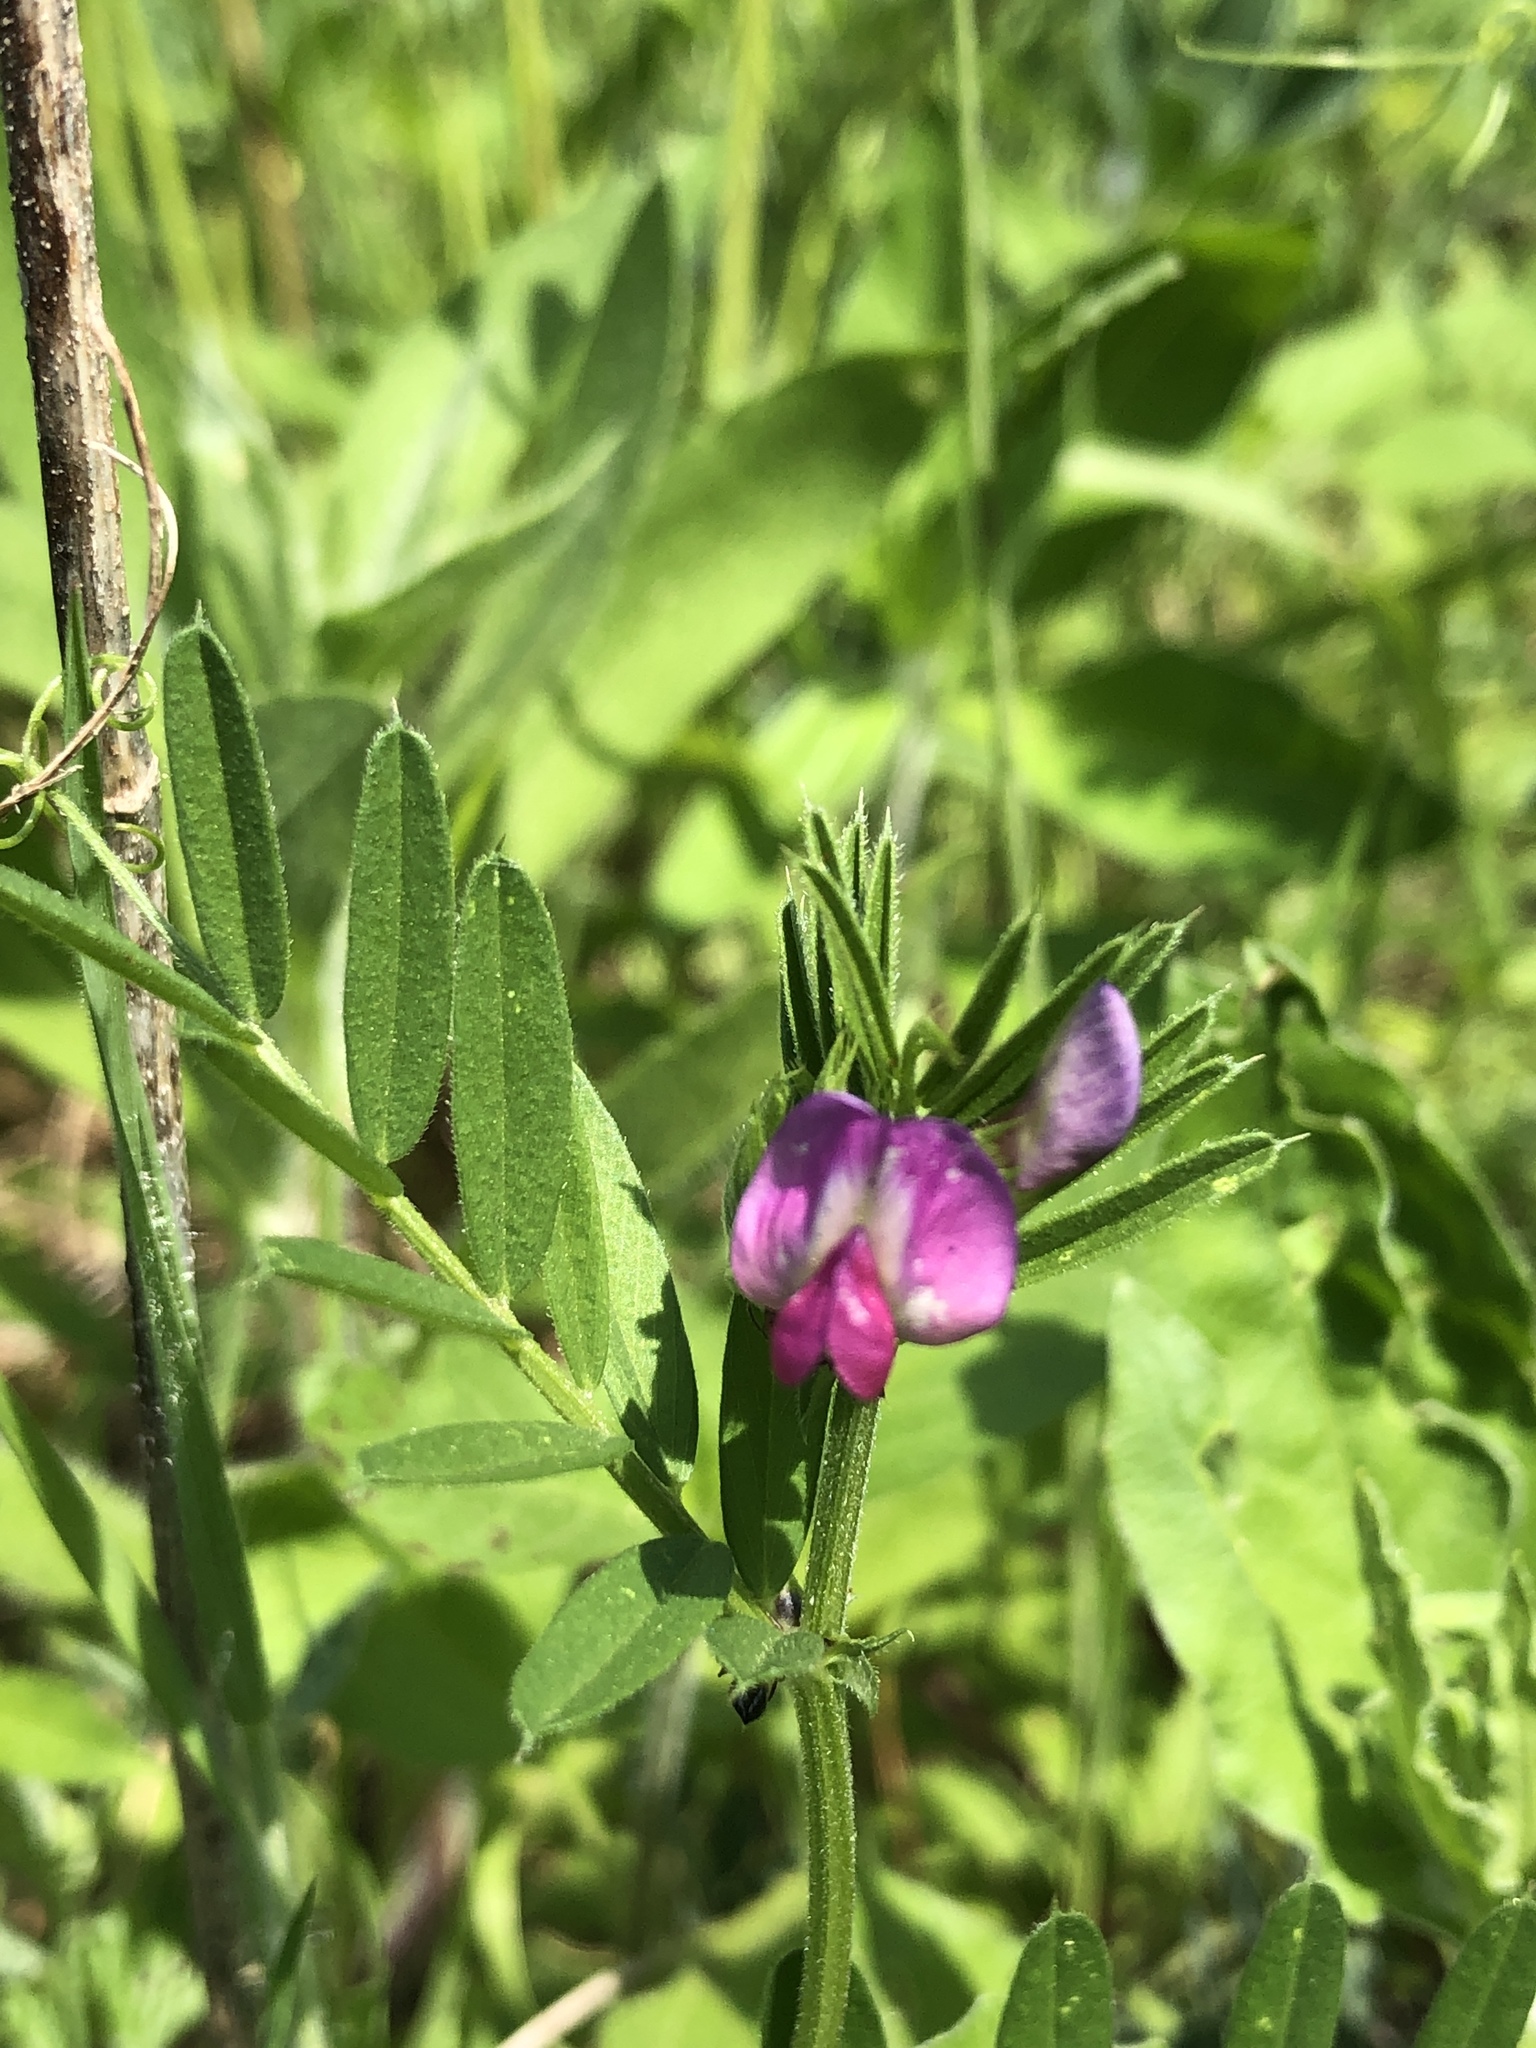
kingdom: Plantae
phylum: Tracheophyta
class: Magnoliopsida
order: Fabales
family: Fabaceae
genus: Vicia
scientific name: Vicia sativa
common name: Garden vetch
